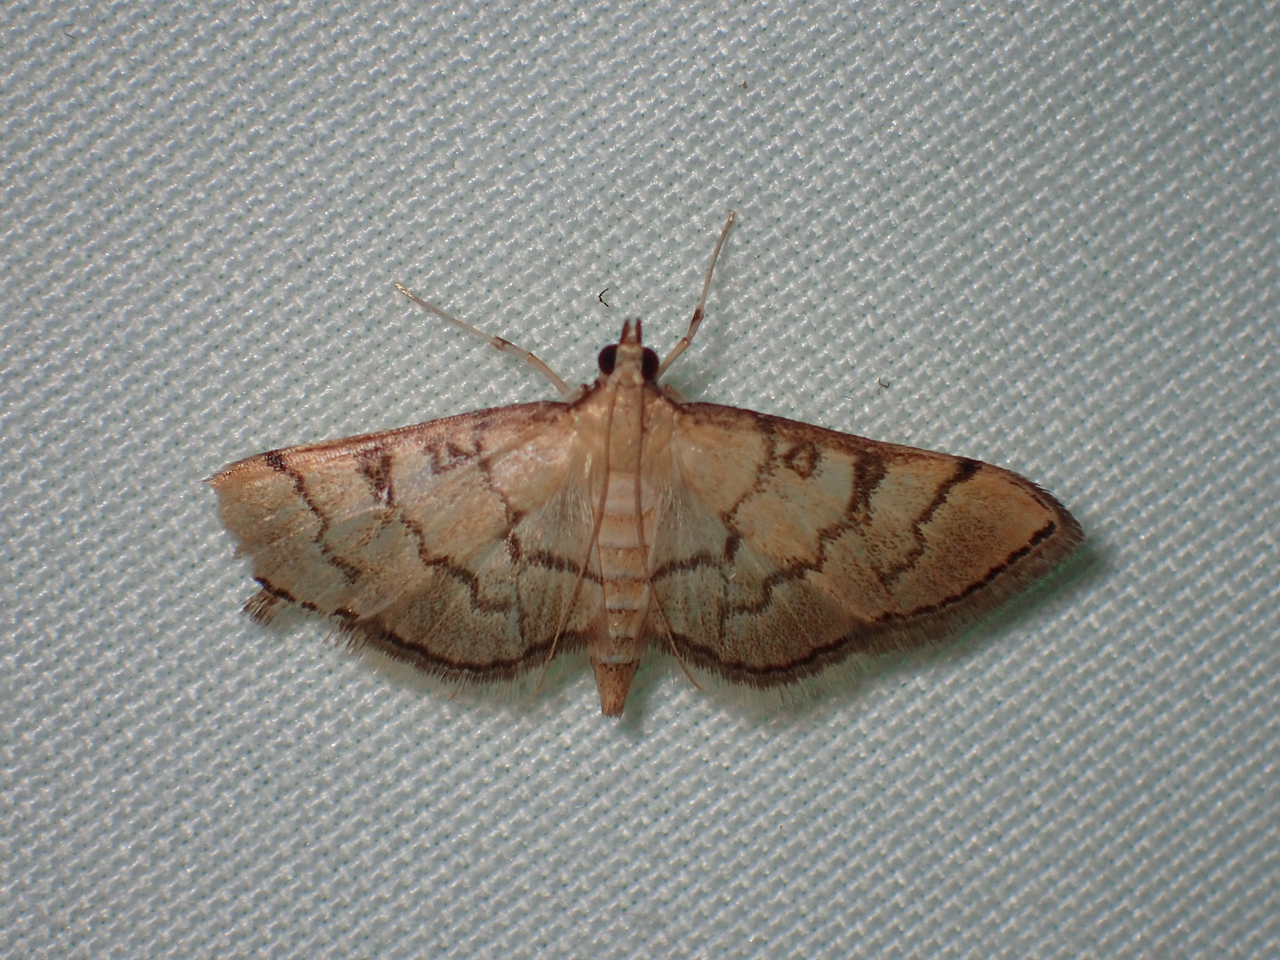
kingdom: Animalia
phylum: Arthropoda
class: Insecta
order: Lepidoptera
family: Crambidae
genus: Lamprosema
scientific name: Lamprosema Blepharomastix ranalis
